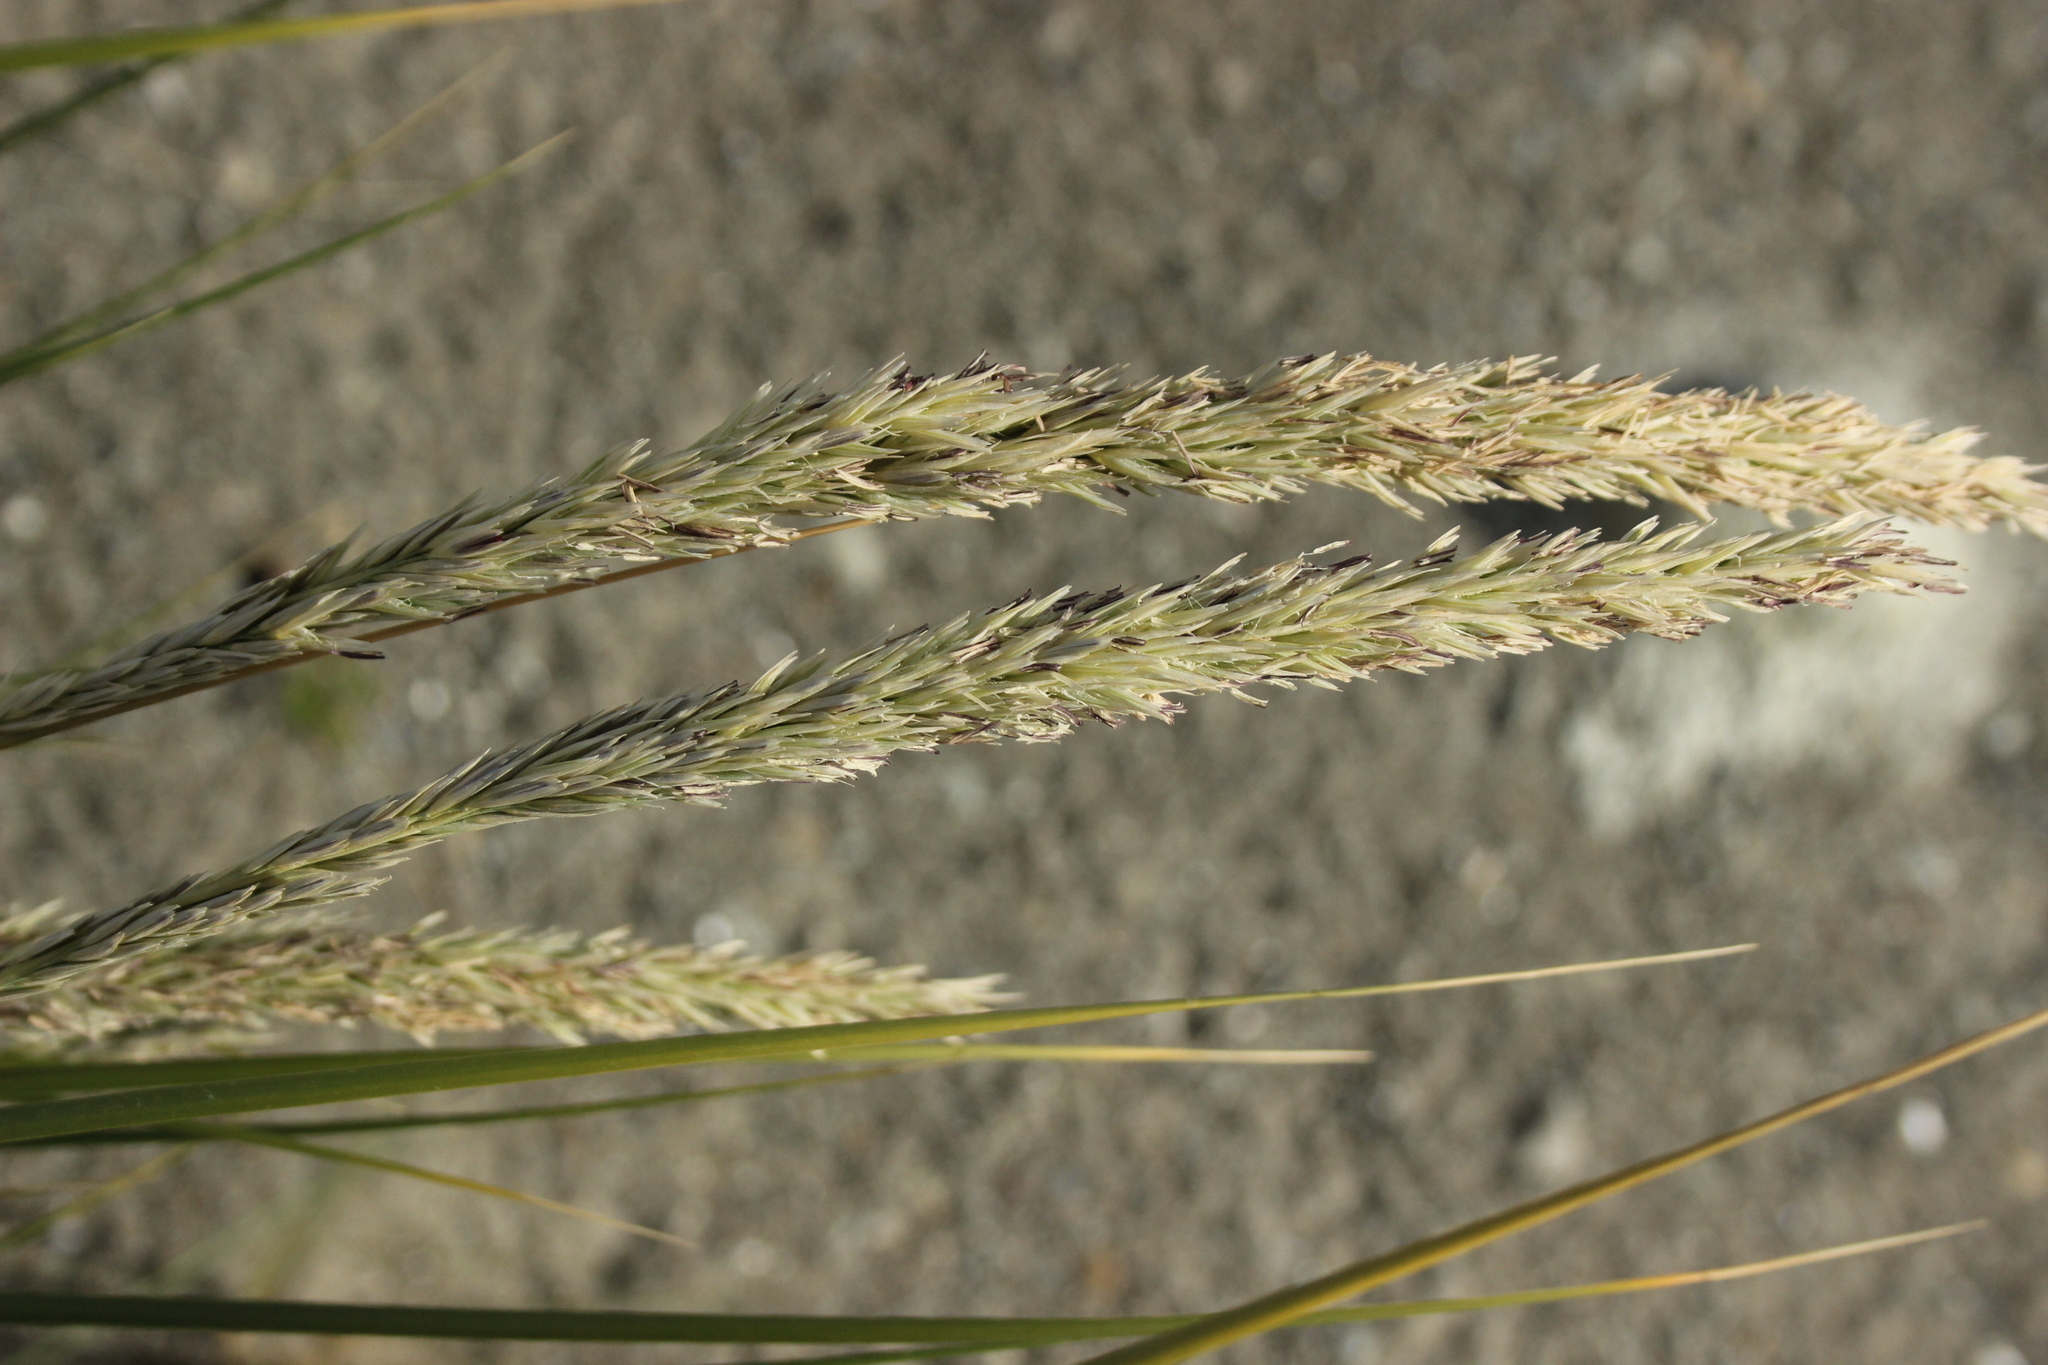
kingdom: Plantae
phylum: Tracheophyta
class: Liliopsida
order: Poales
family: Poaceae
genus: Calamagrostis
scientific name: Calamagrostis arenaria
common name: European beachgrass
